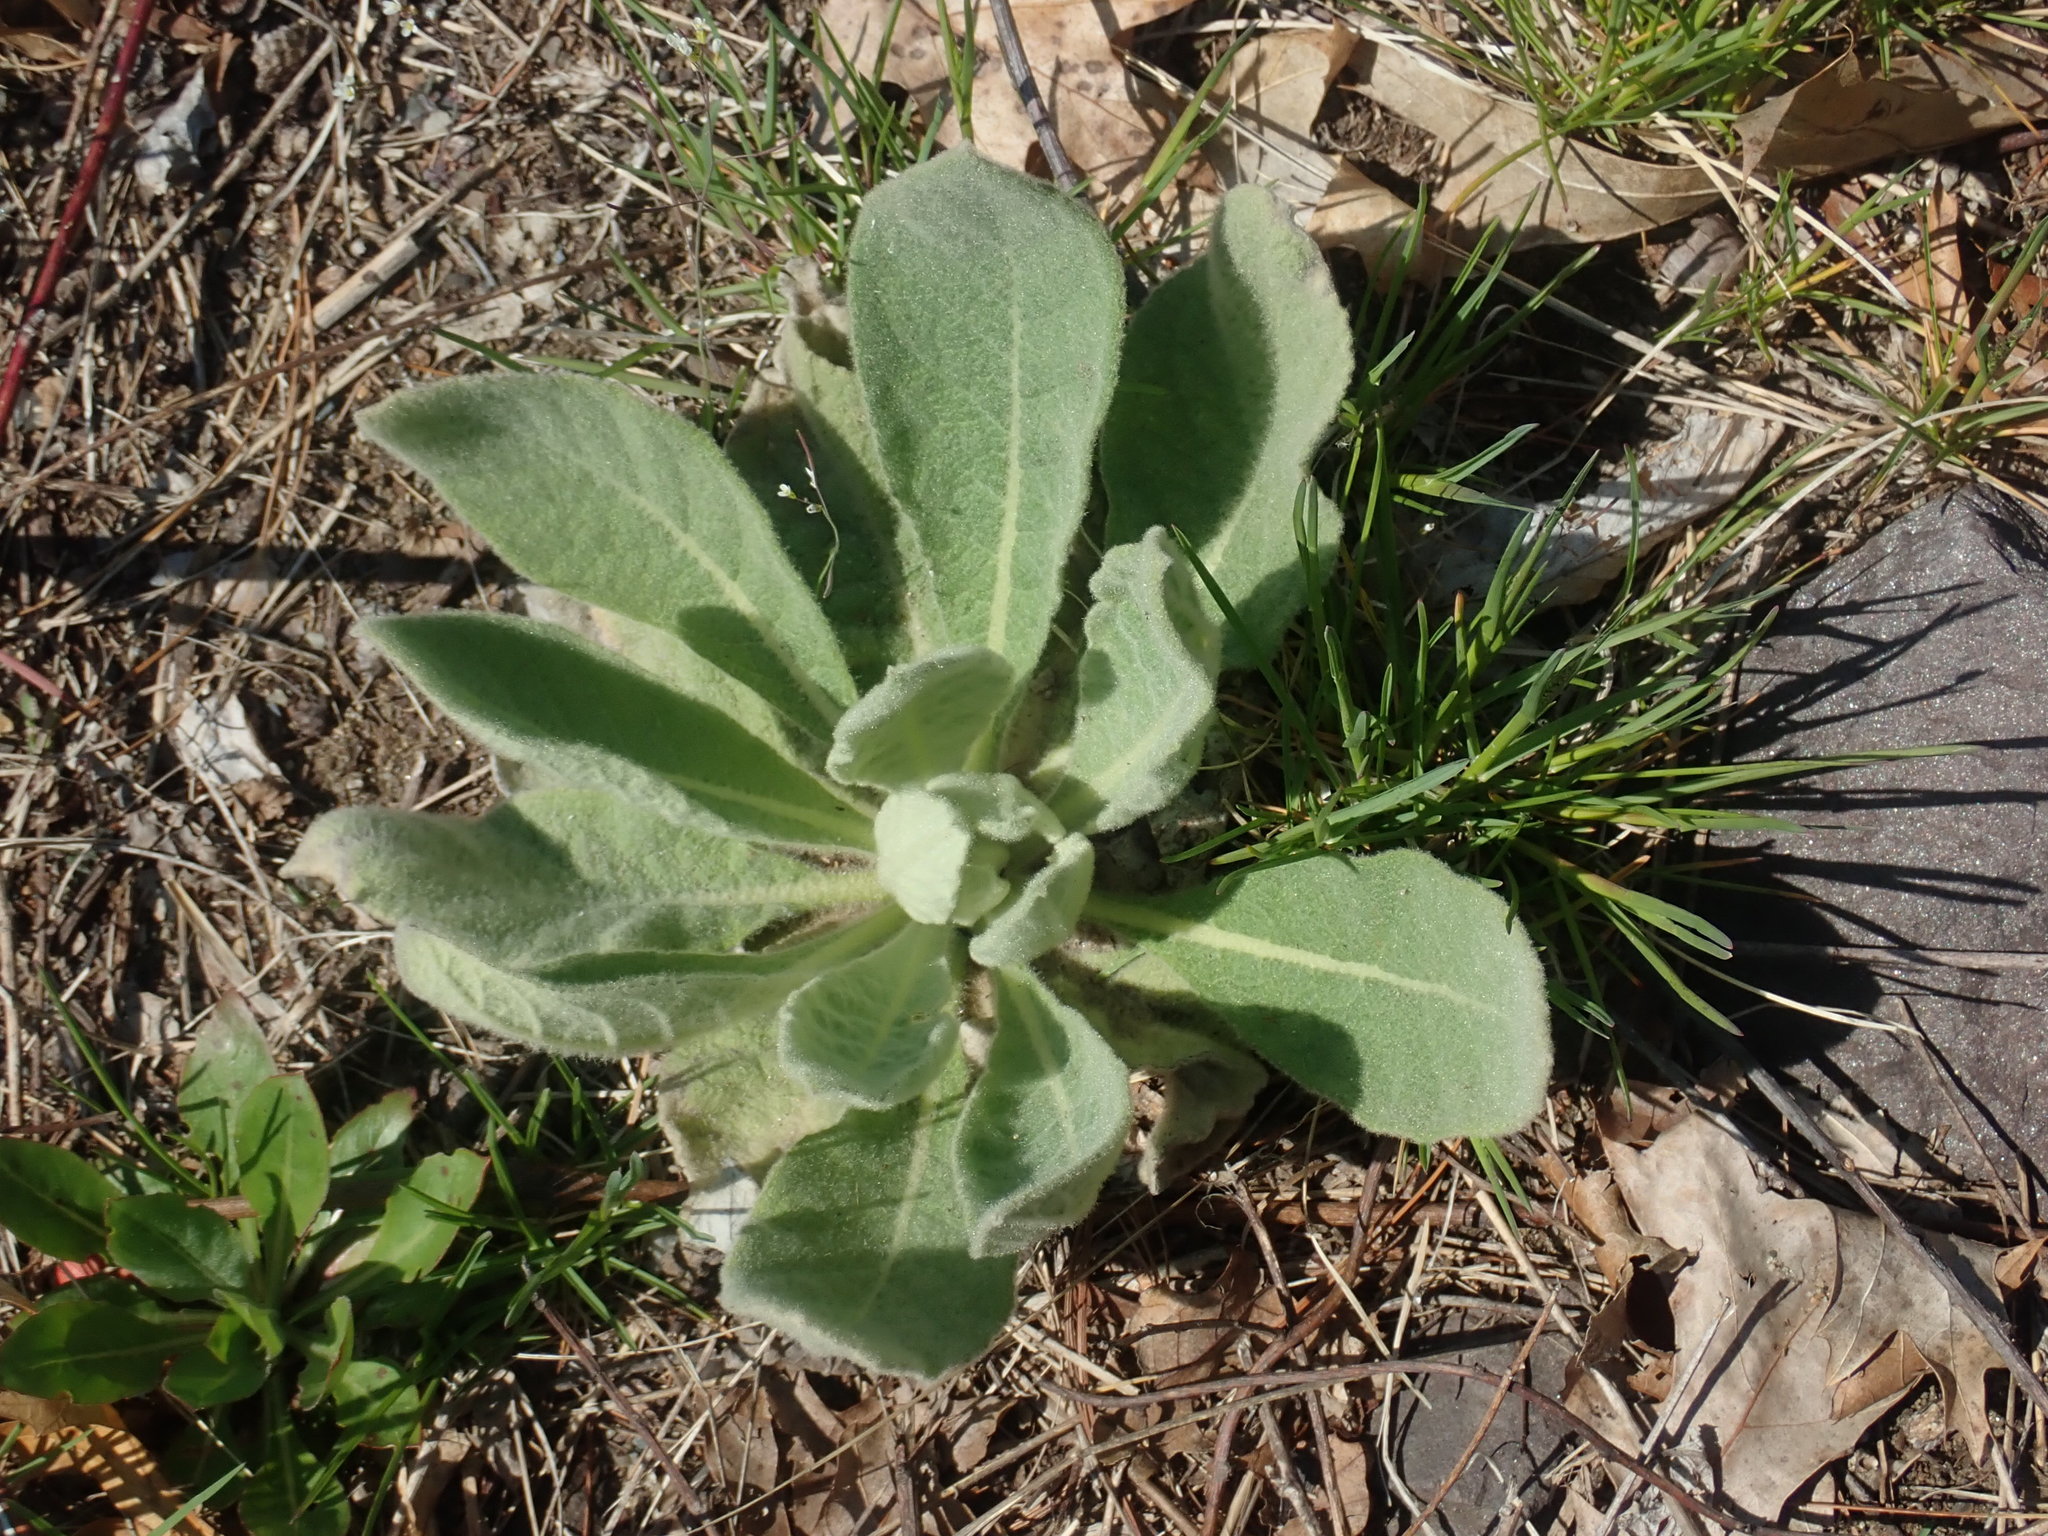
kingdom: Plantae
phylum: Tracheophyta
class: Magnoliopsida
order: Lamiales
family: Scrophulariaceae
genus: Verbascum
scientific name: Verbascum thapsus
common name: Common mullein
